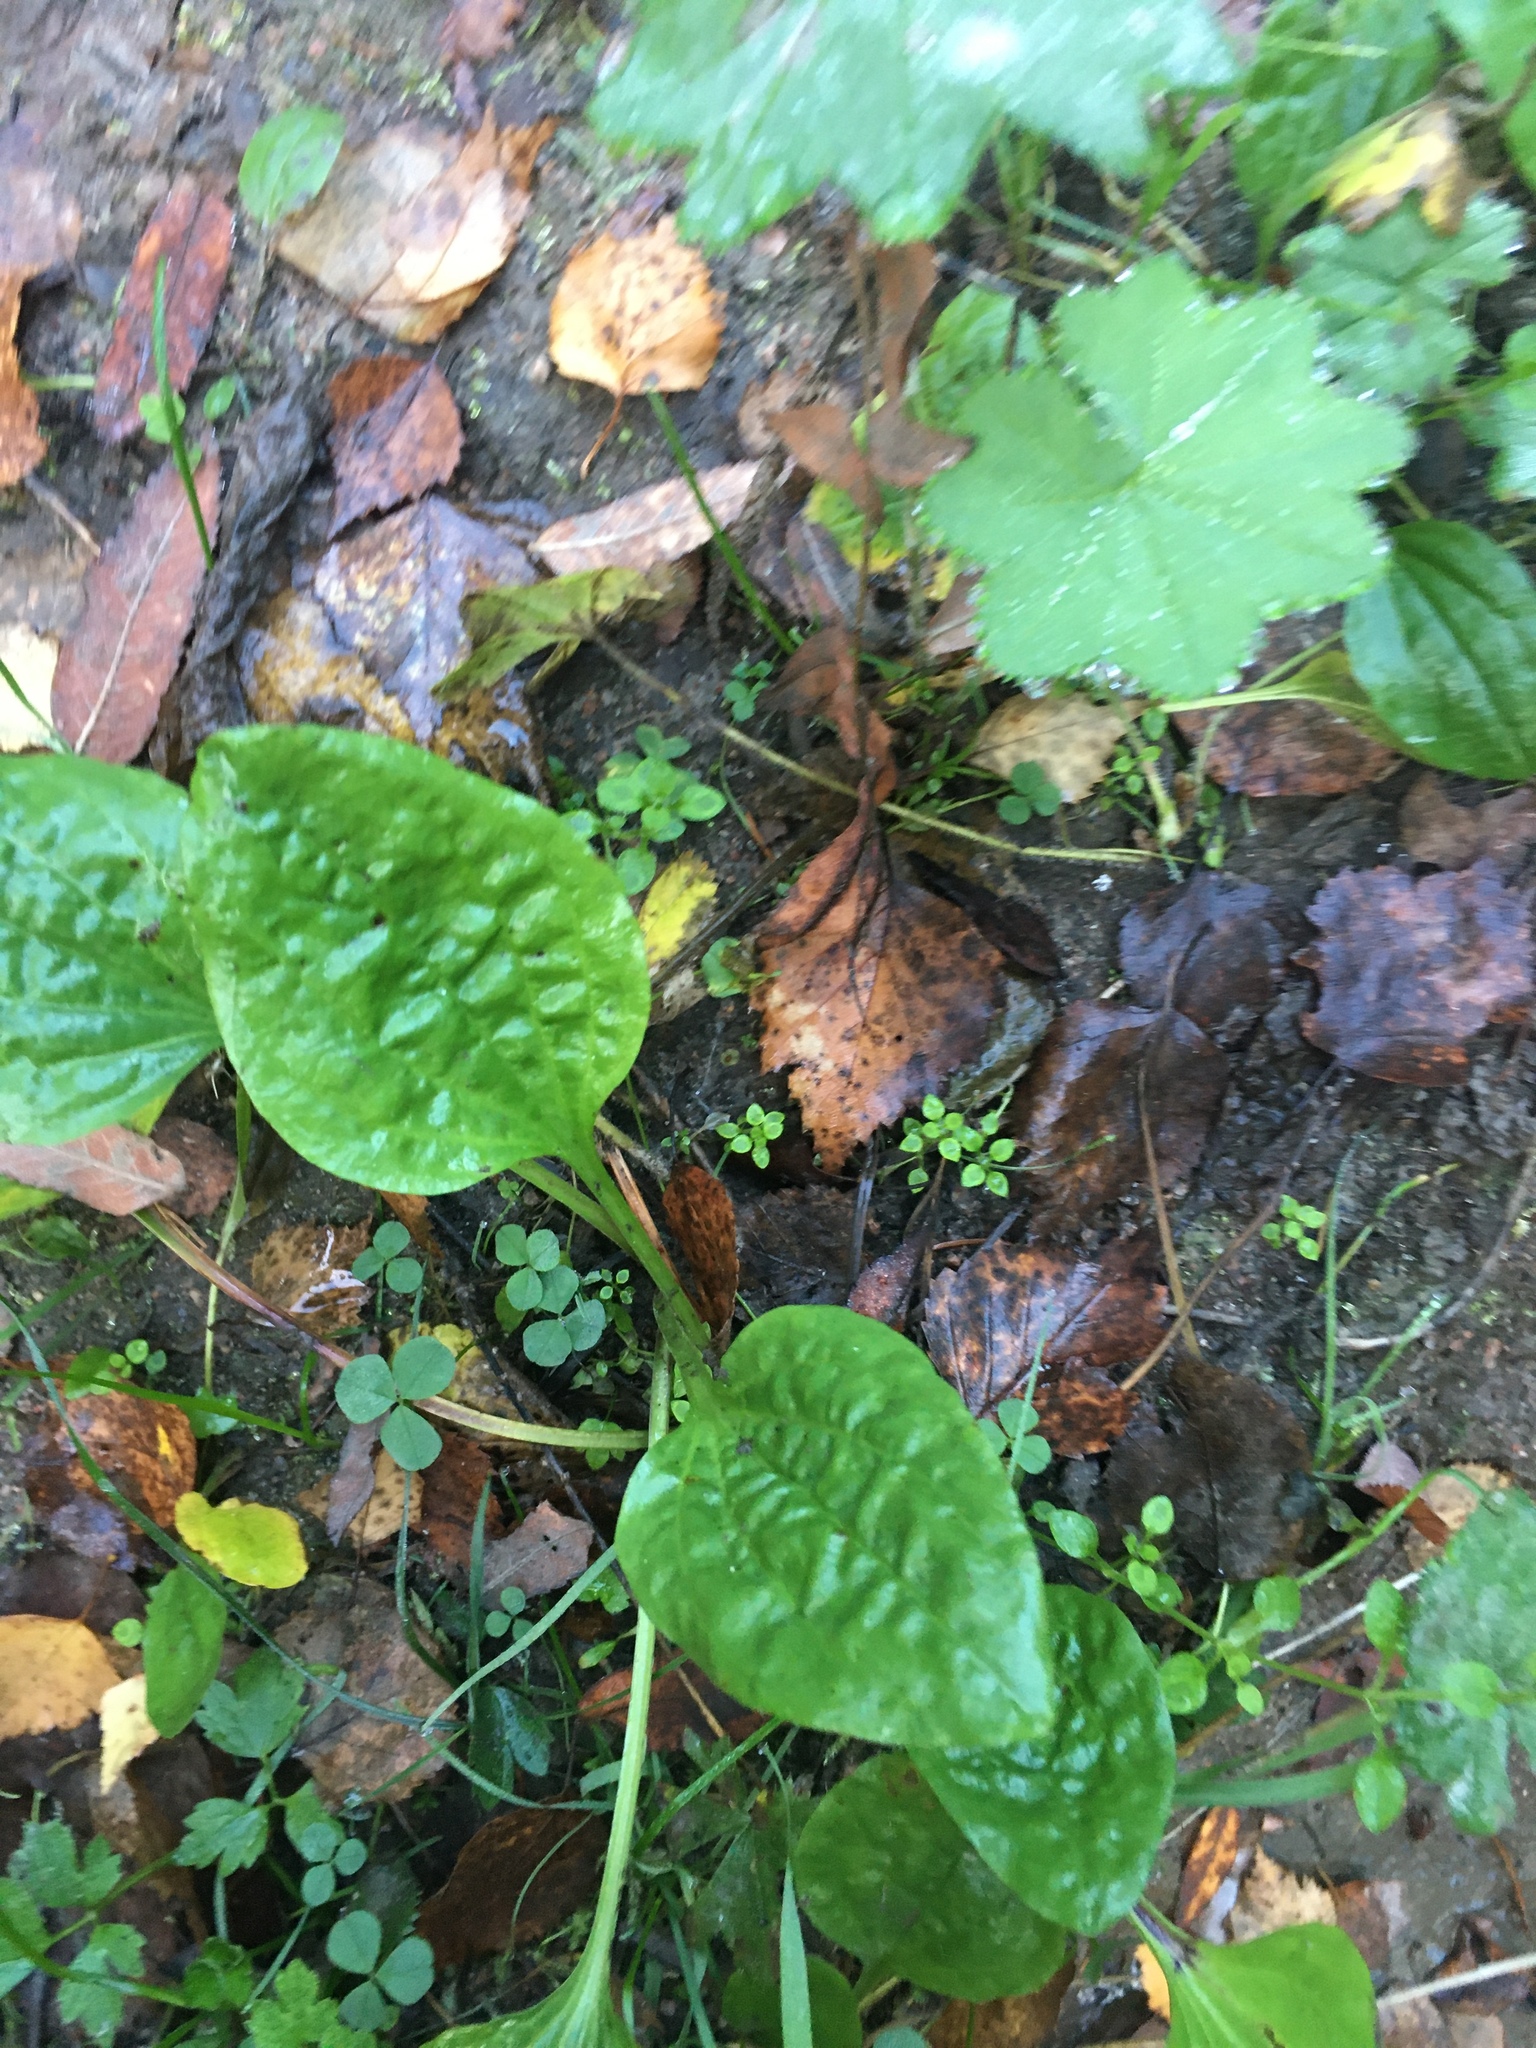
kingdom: Plantae
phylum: Tracheophyta
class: Magnoliopsida
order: Lamiales
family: Plantaginaceae
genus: Plantago
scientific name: Plantago major
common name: Common plantain
